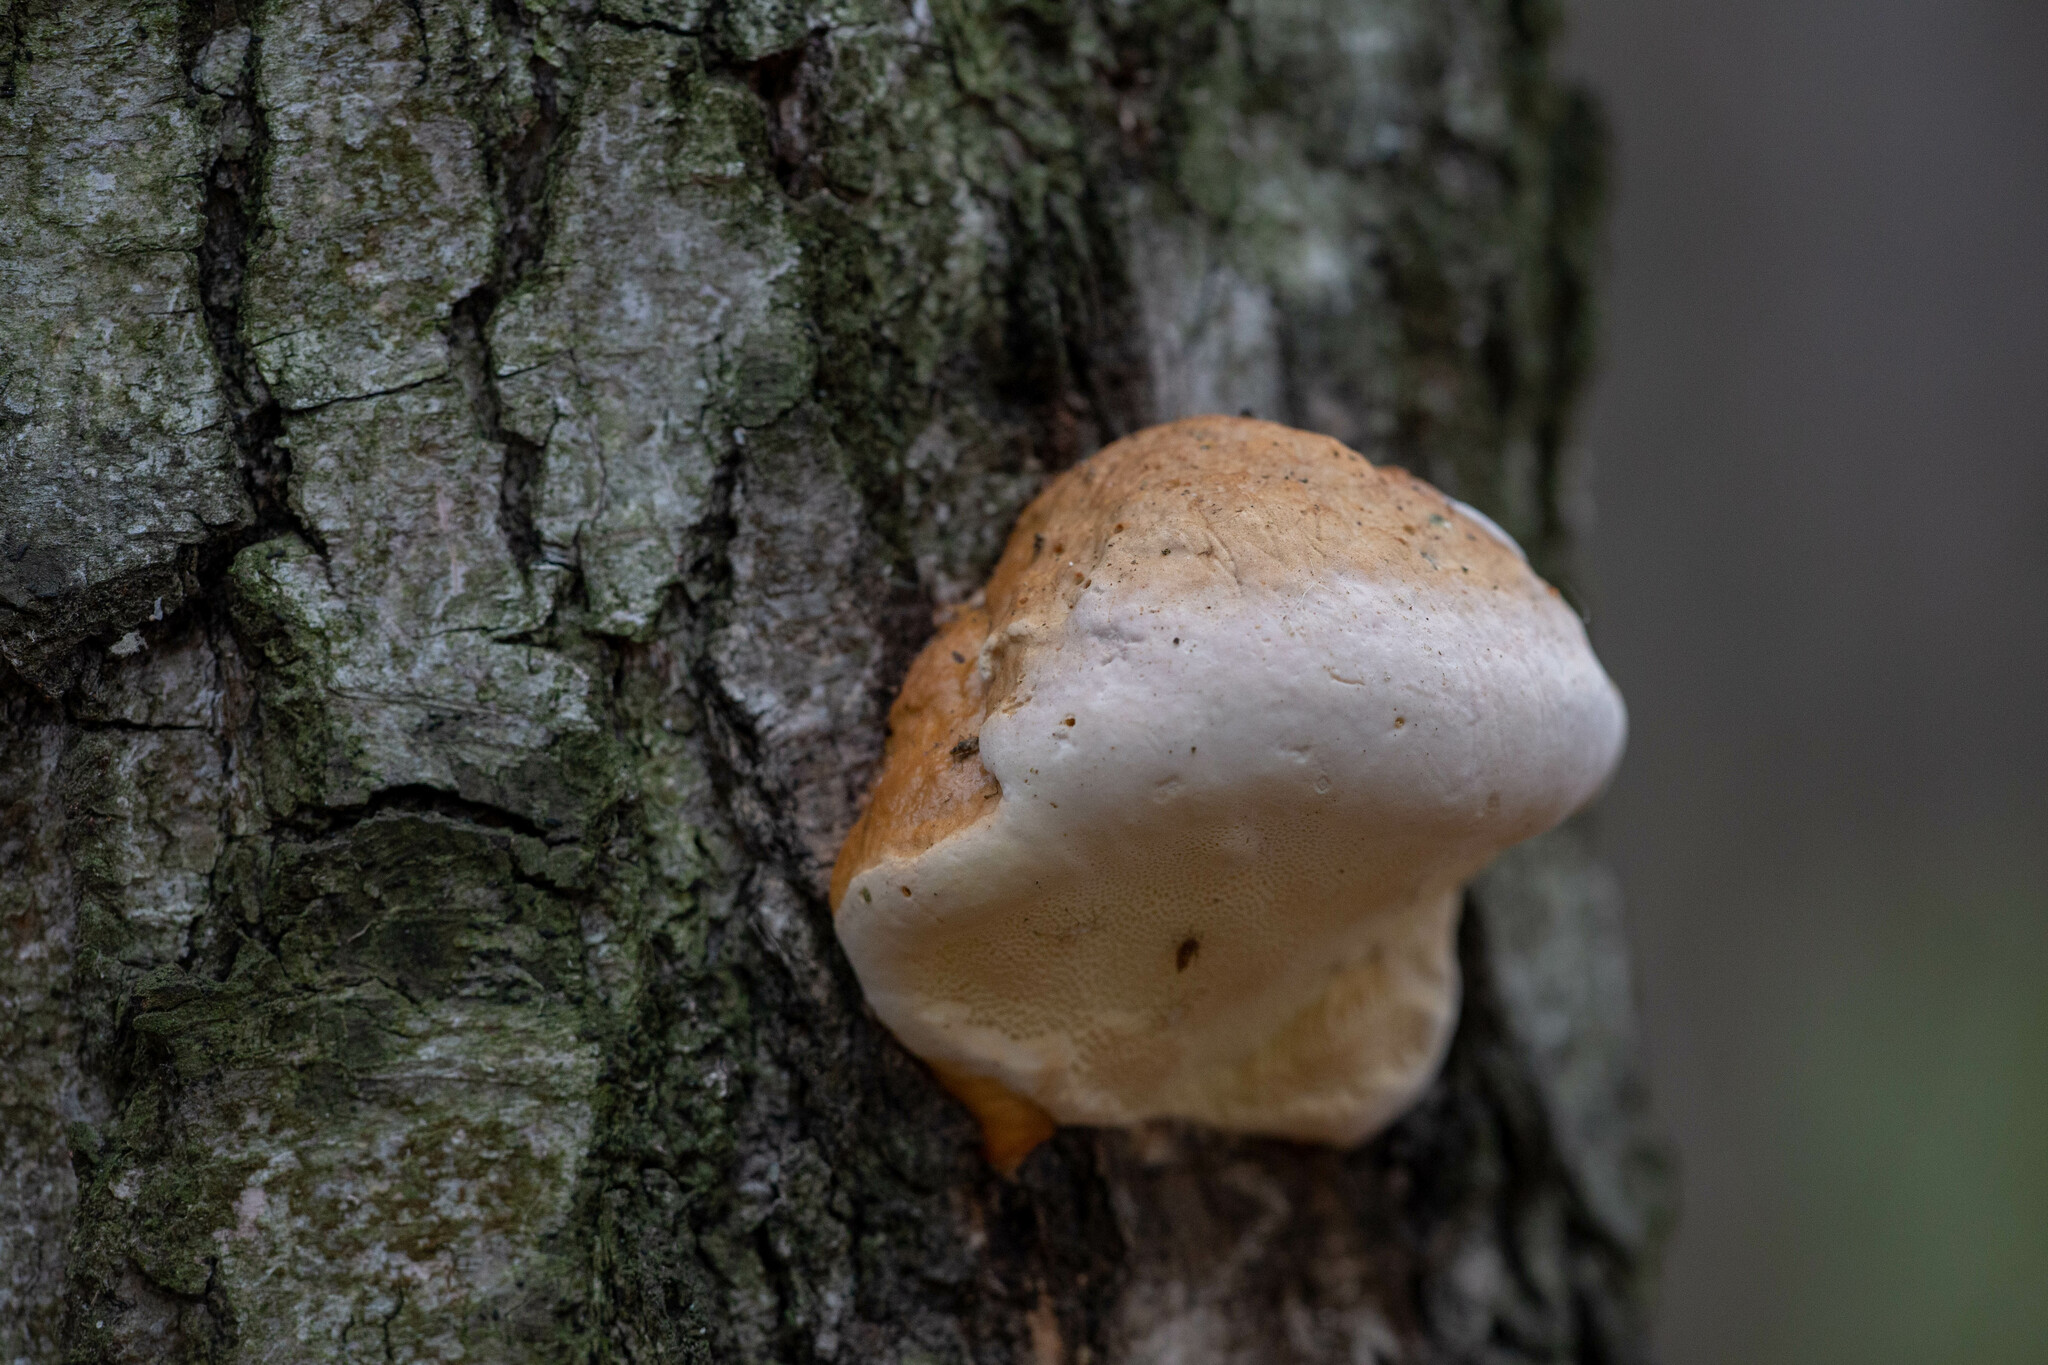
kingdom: Fungi
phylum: Basidiomycota
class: Agaricomycetes
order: Polyporales
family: Fomitopsidaceae
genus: Fomitopsis
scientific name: Fomitopsis pinicola
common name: Red-belted bracket
